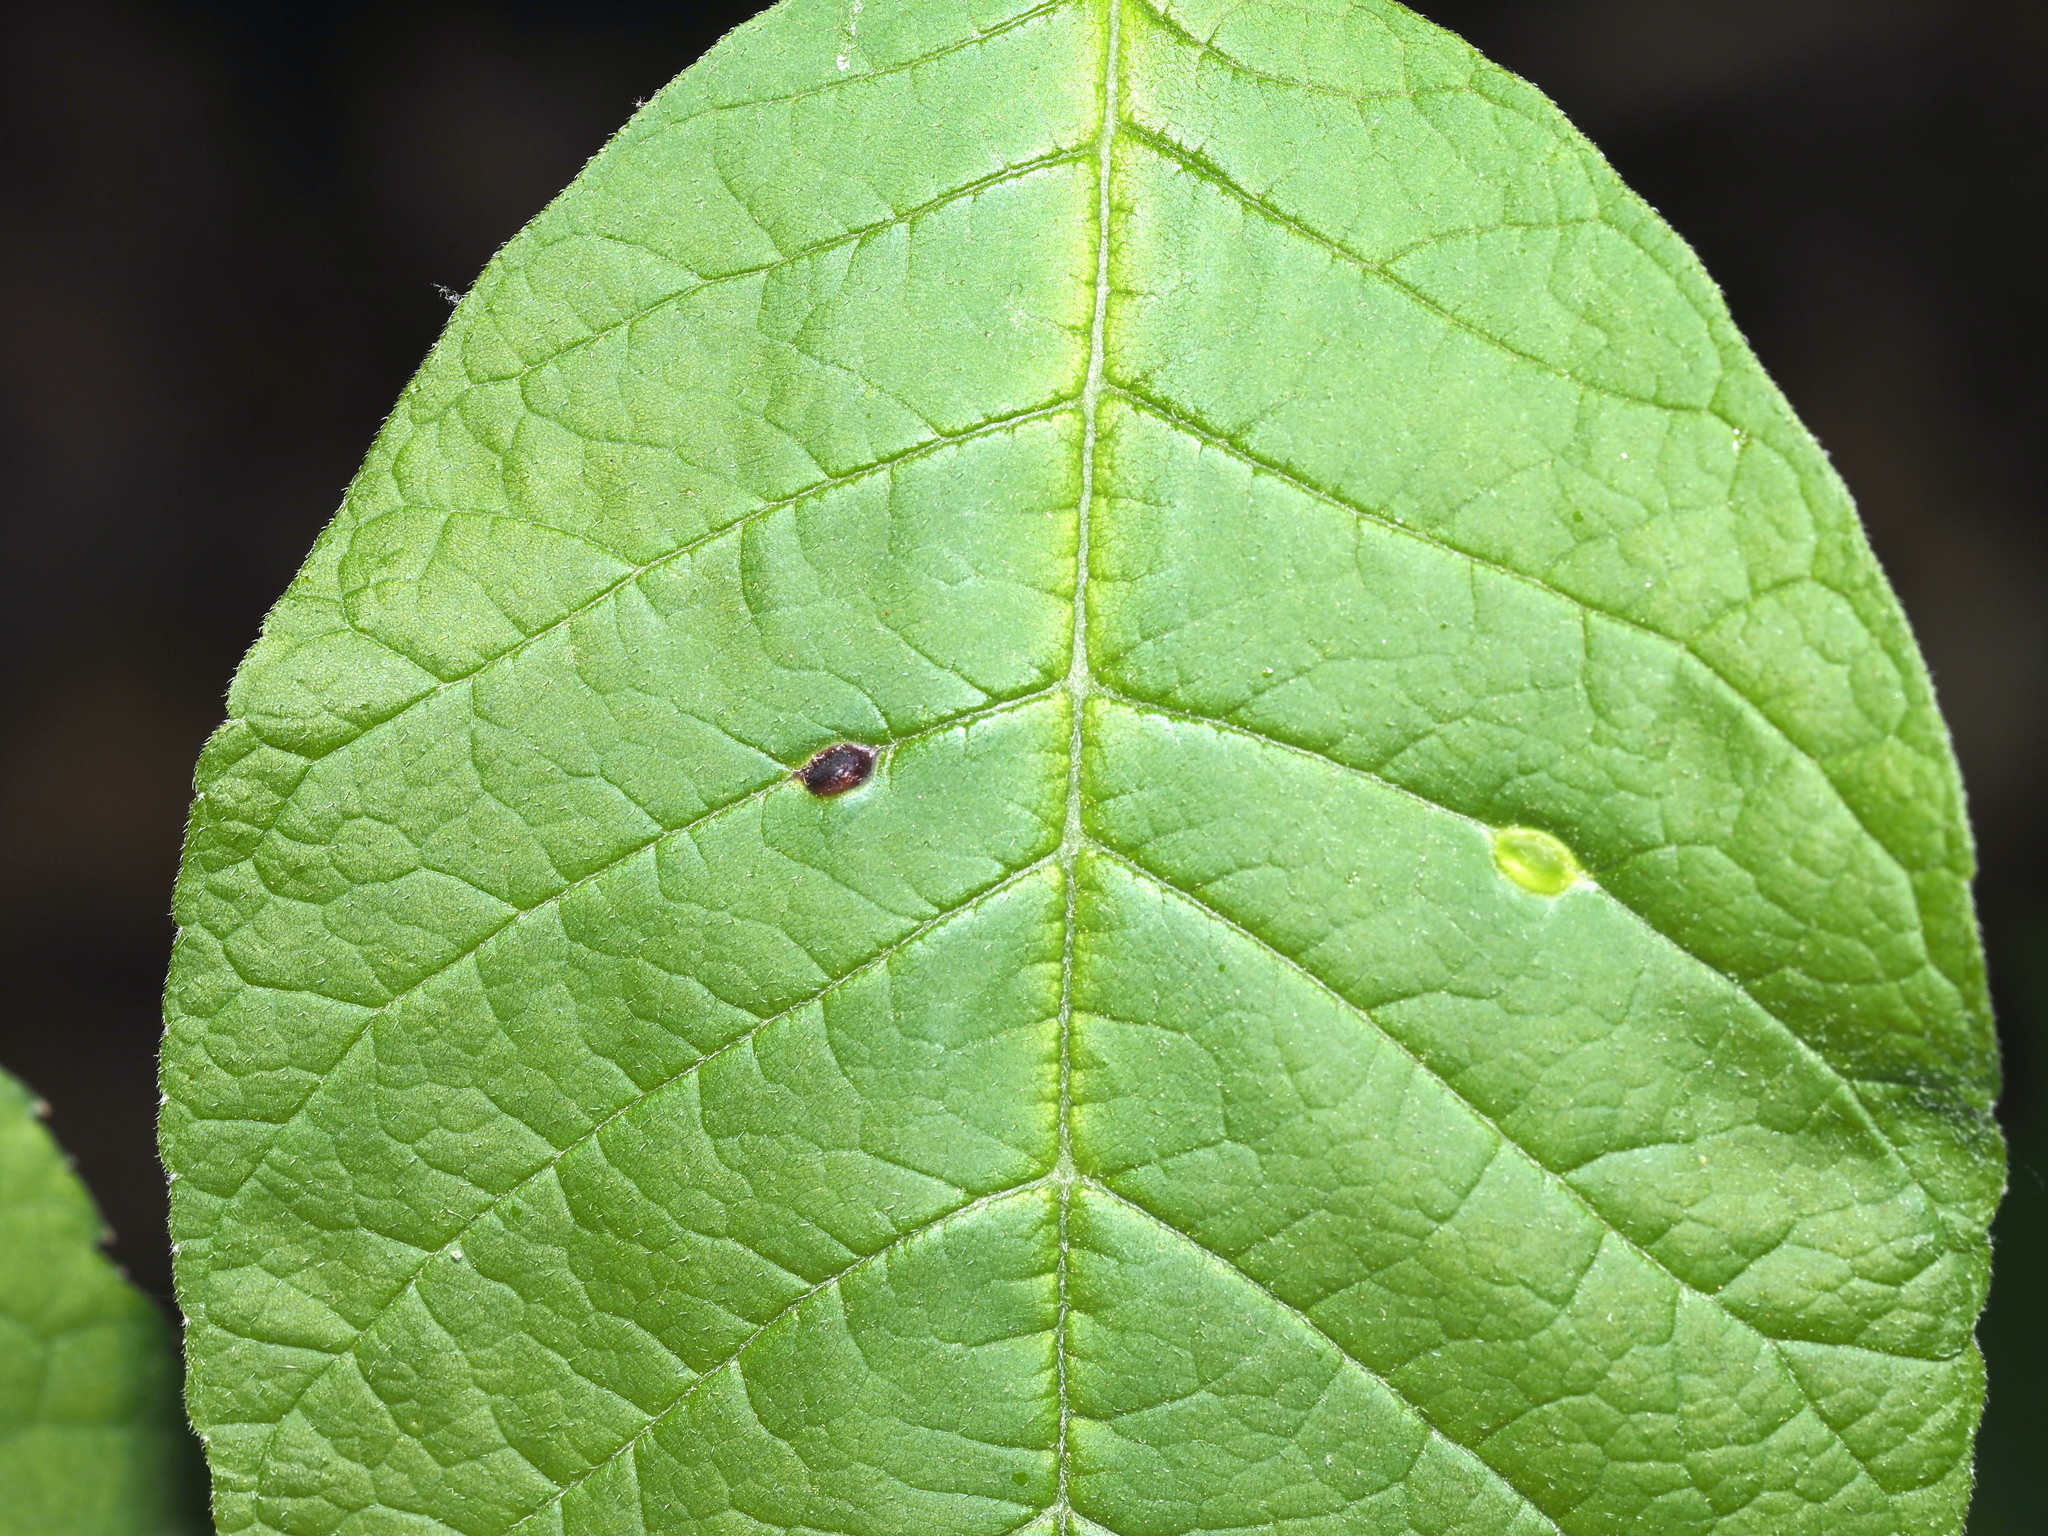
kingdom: Animalia
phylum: Arthropoda
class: Insecta
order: Diptera
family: Cecidomyiidae
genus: Dasineura
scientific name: Dasineura pellex
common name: Ash bullet gall midge
